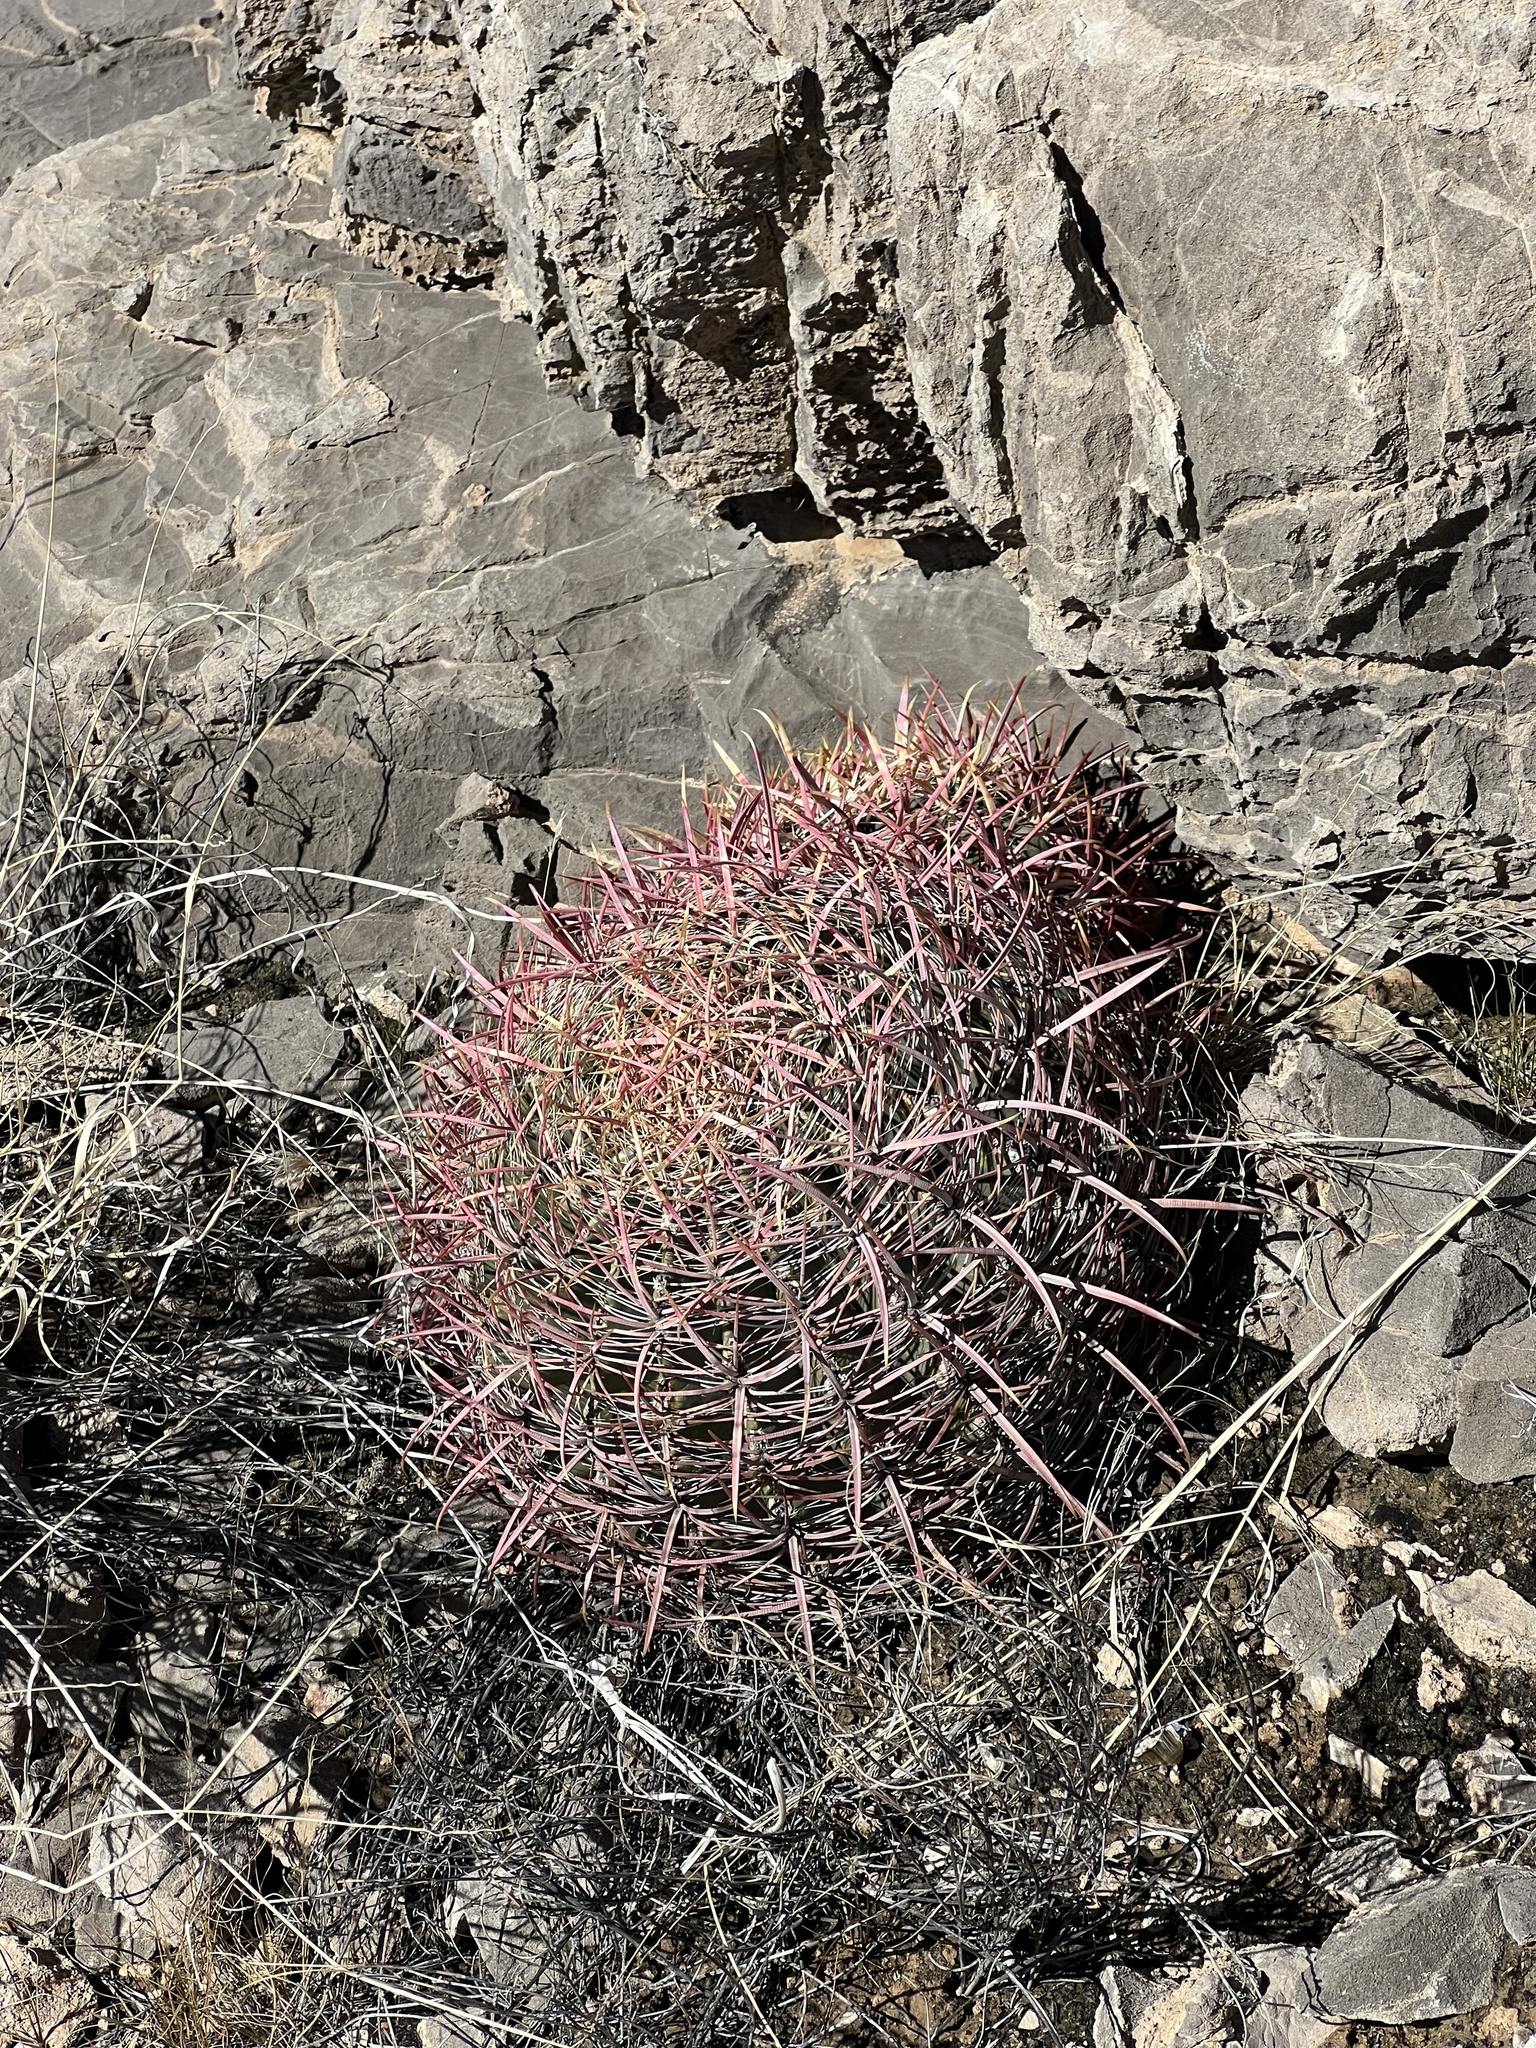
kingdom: Plantae
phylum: Tracheophyta
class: Magnoliopsida
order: Caryophyllales
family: Cactaceae
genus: Ferocactus
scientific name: Ferocactus cylindraceus
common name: California barrel cactus
